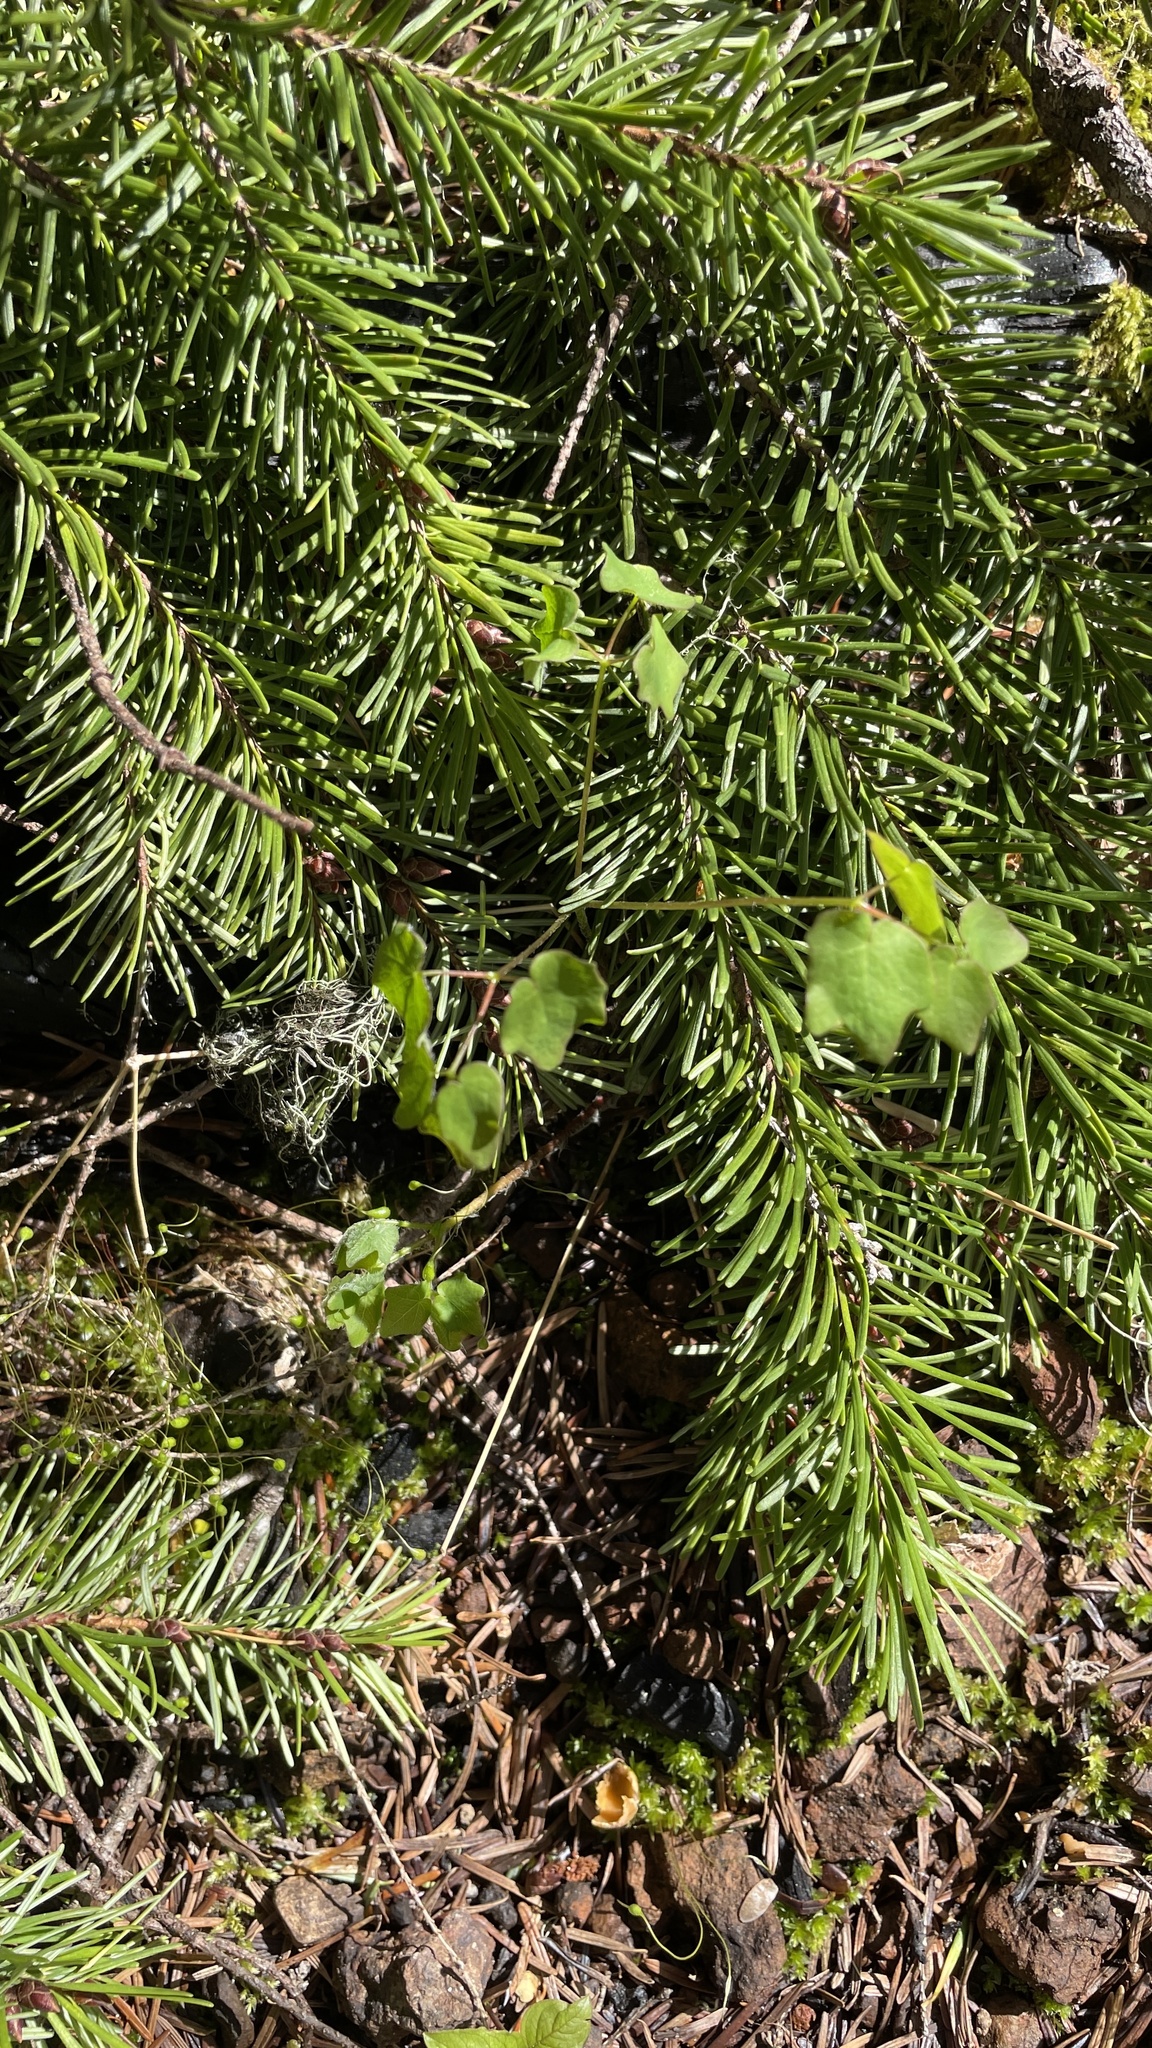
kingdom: Plantae
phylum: Tracheophyta
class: Magnoliopsida
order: Ranunculales
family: Berberidaceae
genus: Vancouveria
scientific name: Vancouveria hexandra
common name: Northern inside-out-flower
